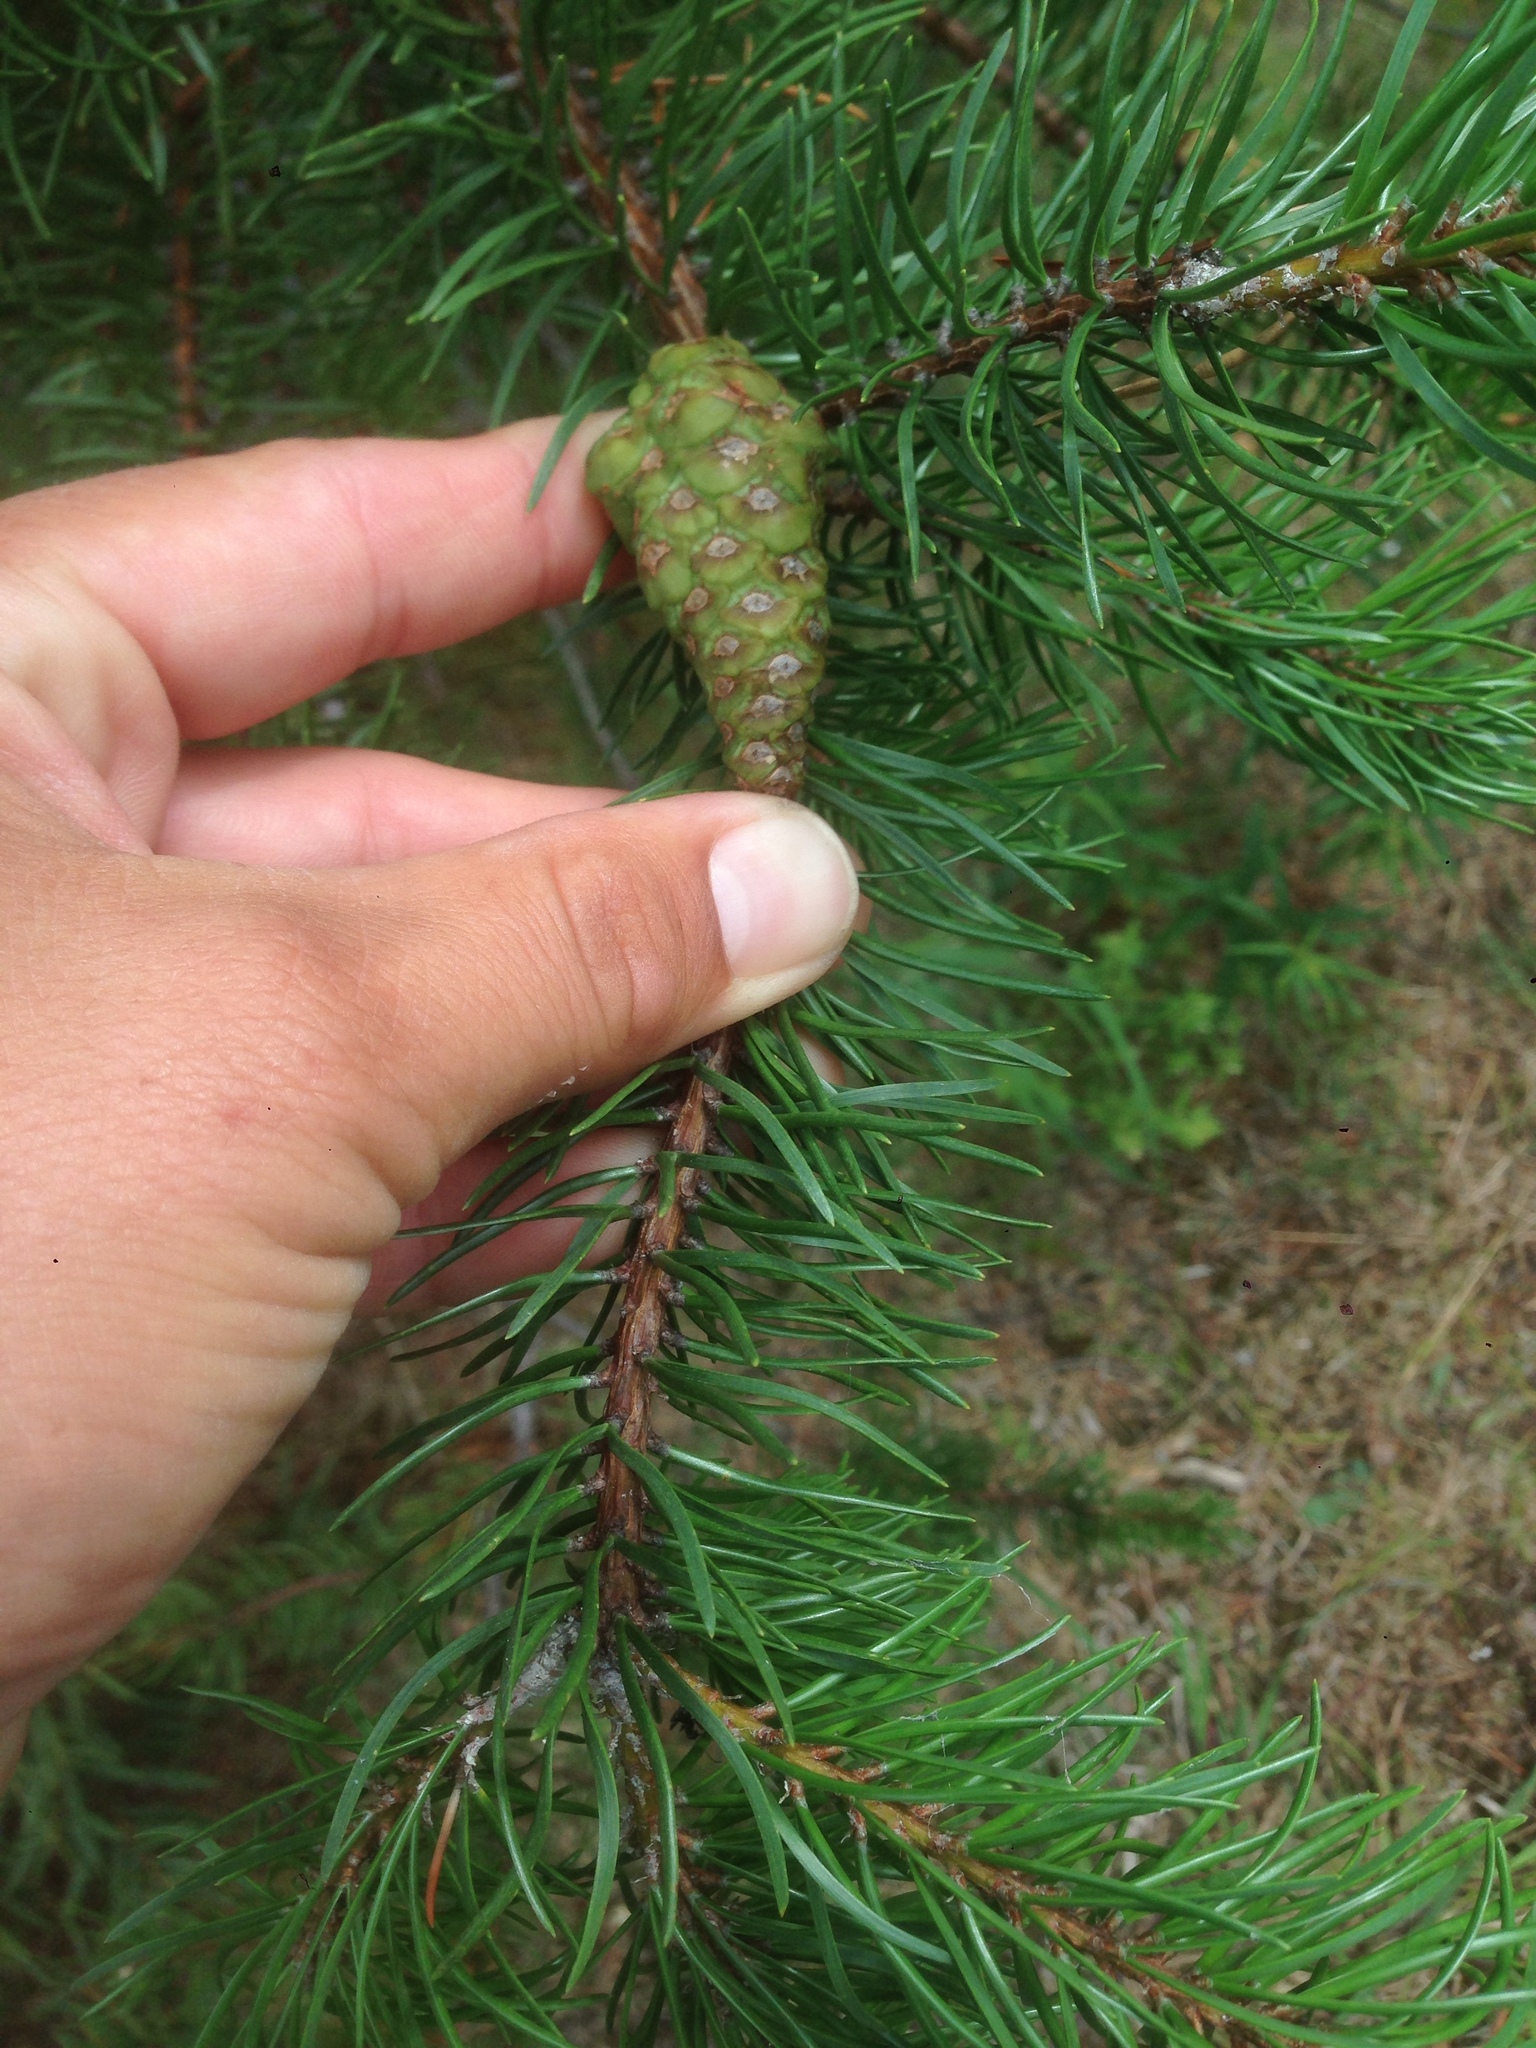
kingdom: Plantae
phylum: Tracheophyta
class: Pinopsida
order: Pinales
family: Pinaceae
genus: Pinus
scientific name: Pinus banksiana
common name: Jack pine
